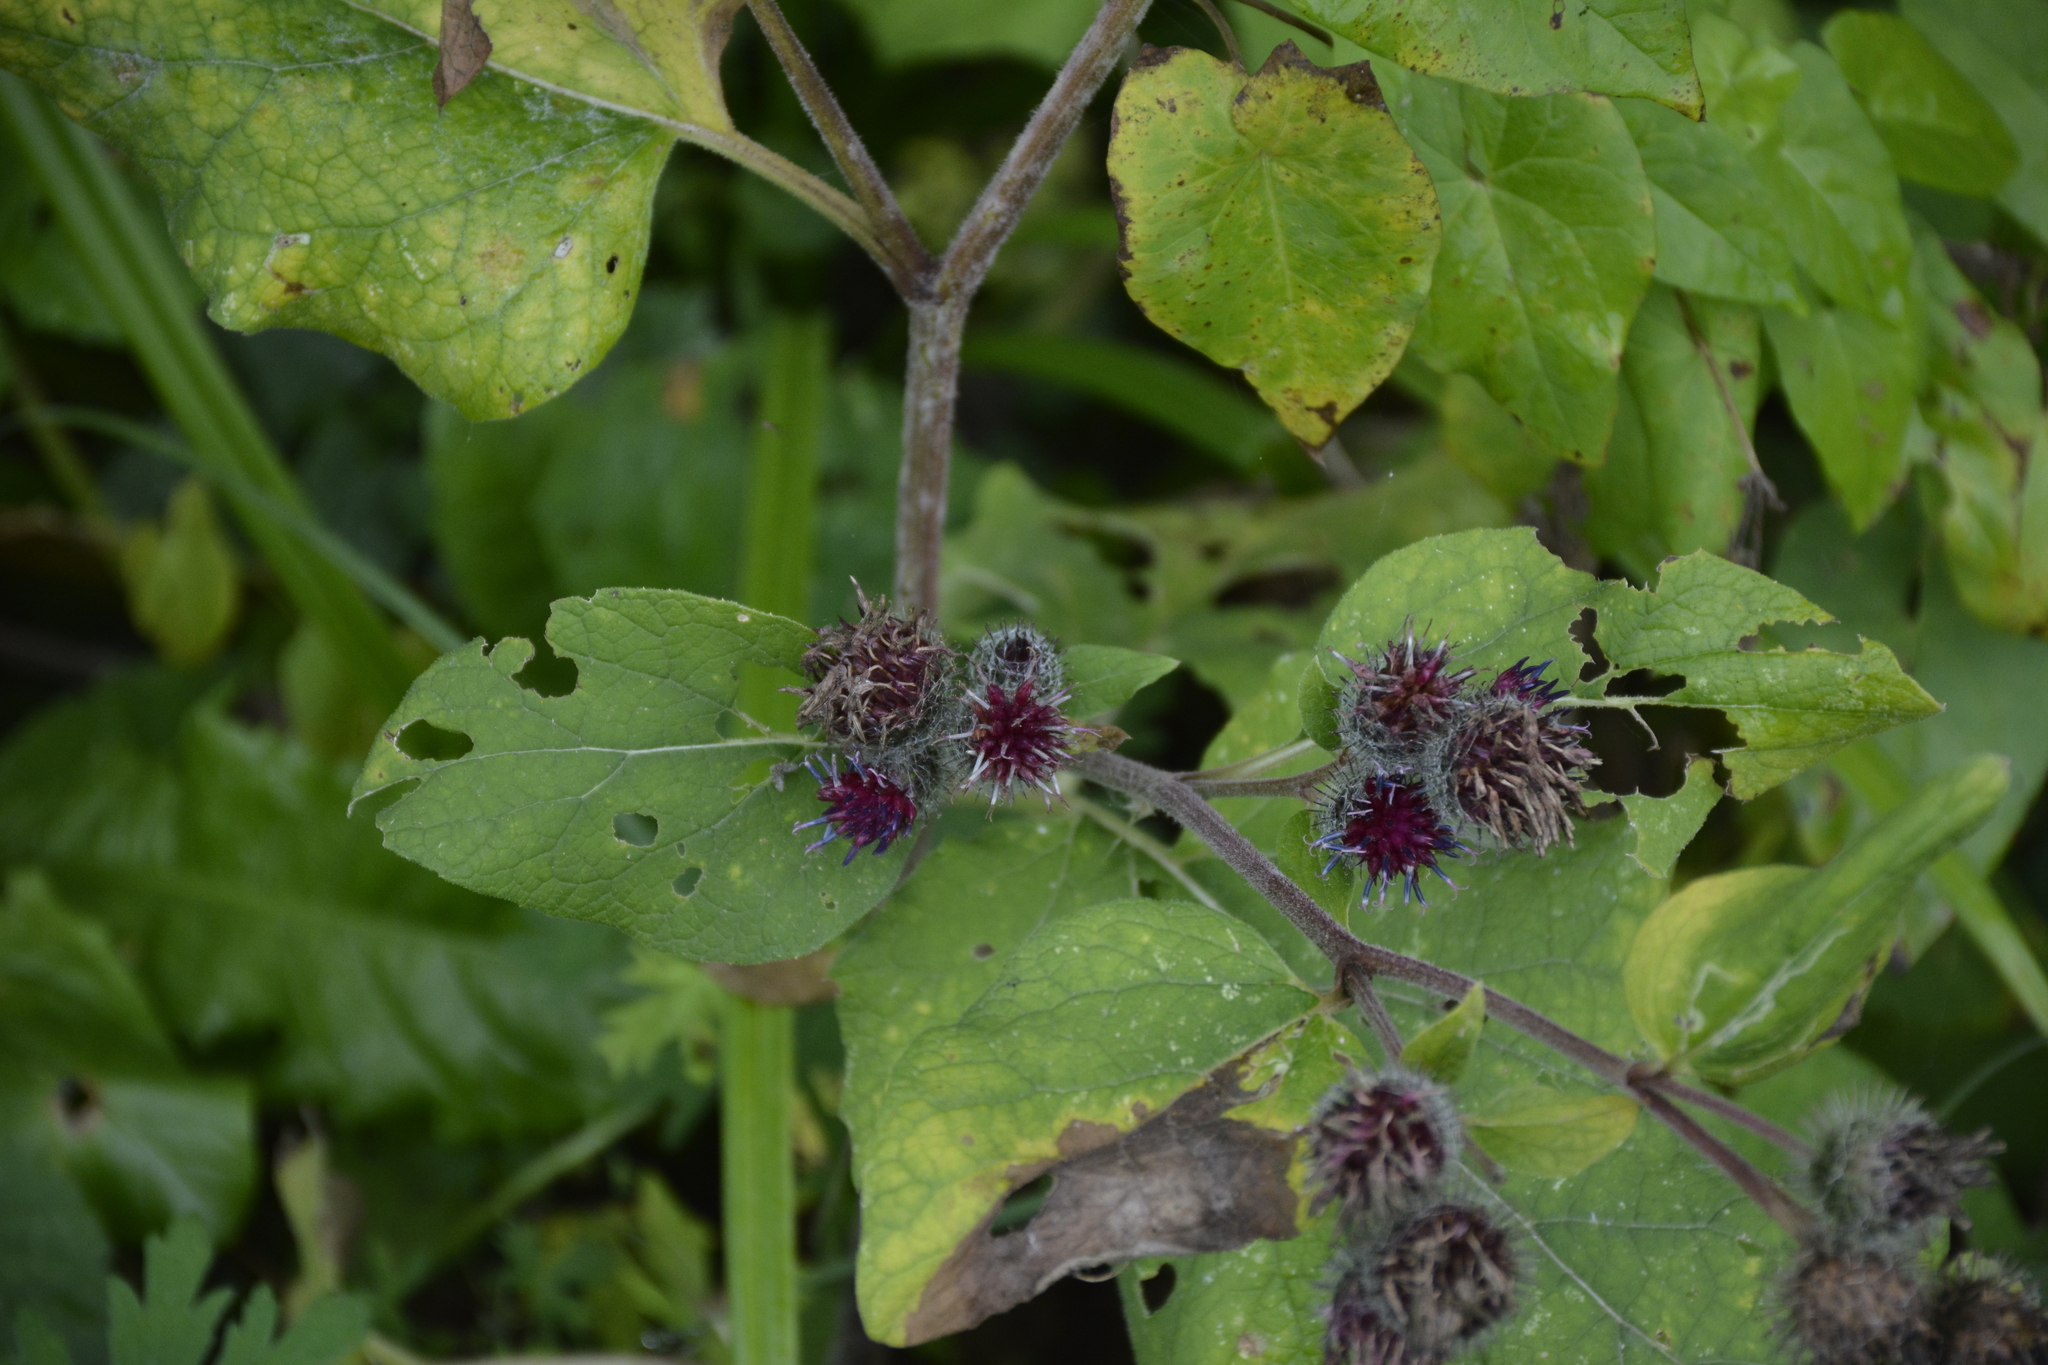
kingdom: Plantae
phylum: Tracheophyta
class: Magnoliopsida
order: Asterales
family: Asteraceae
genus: Arctium
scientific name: Arctium tomentosum
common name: Woolly burdock
